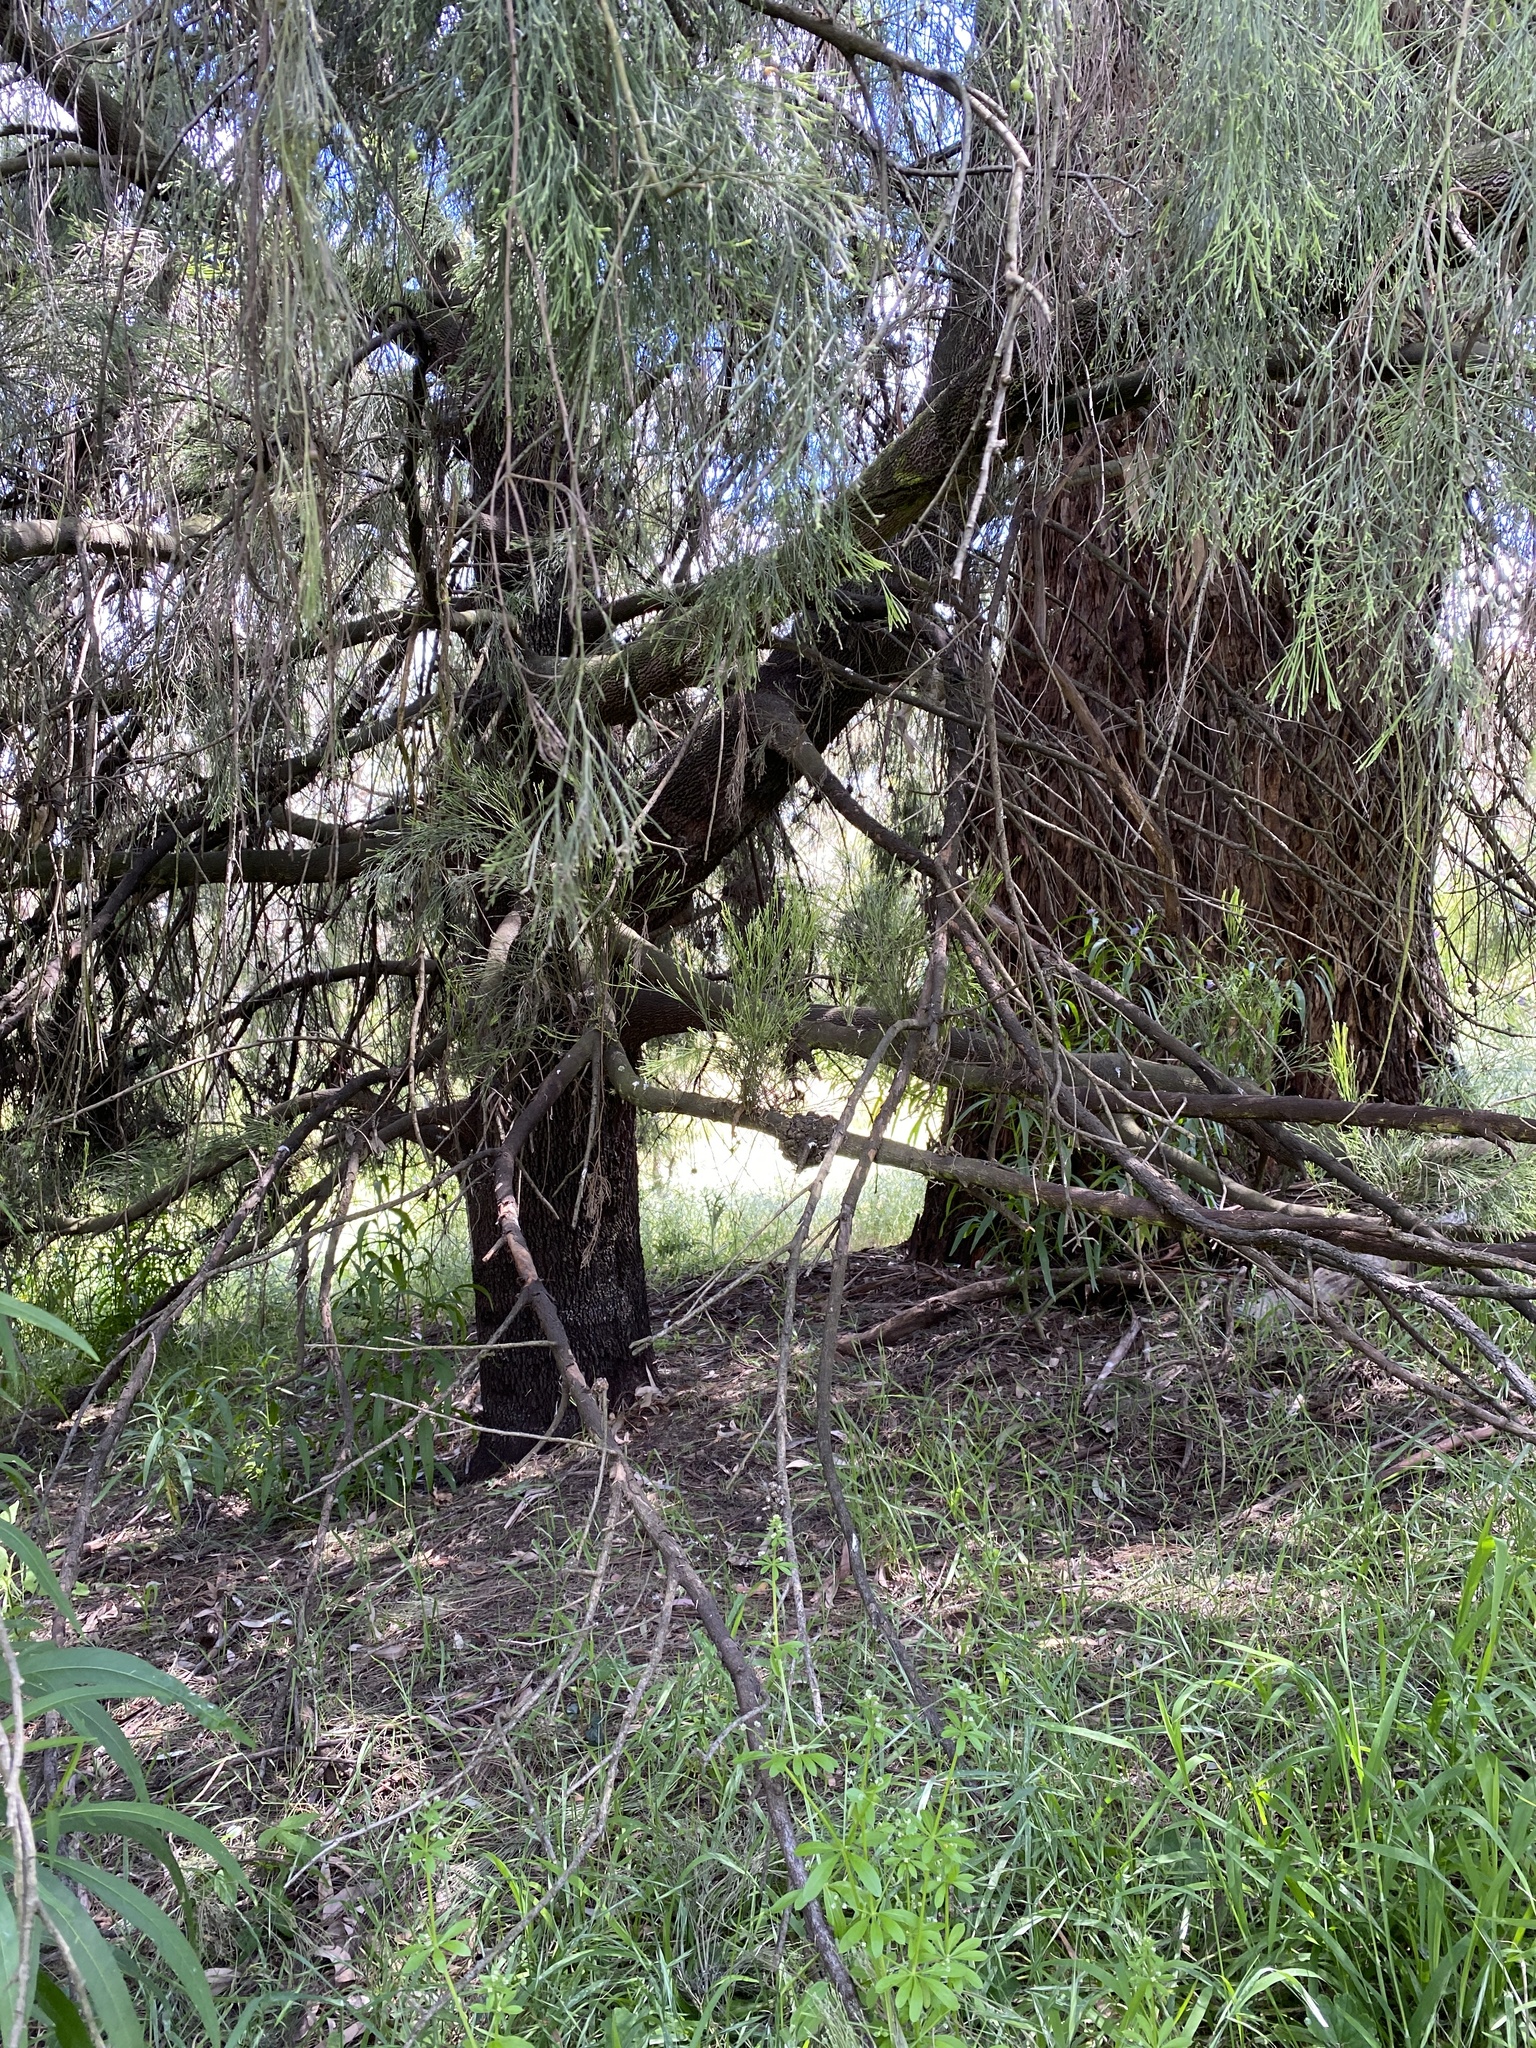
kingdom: Plantae
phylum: Tracheophyta
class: Magnoliopsida
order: Santalales
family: Santalaceae
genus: Exocarpos
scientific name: Exocarpos cupressiformis
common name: Cherry ballart
